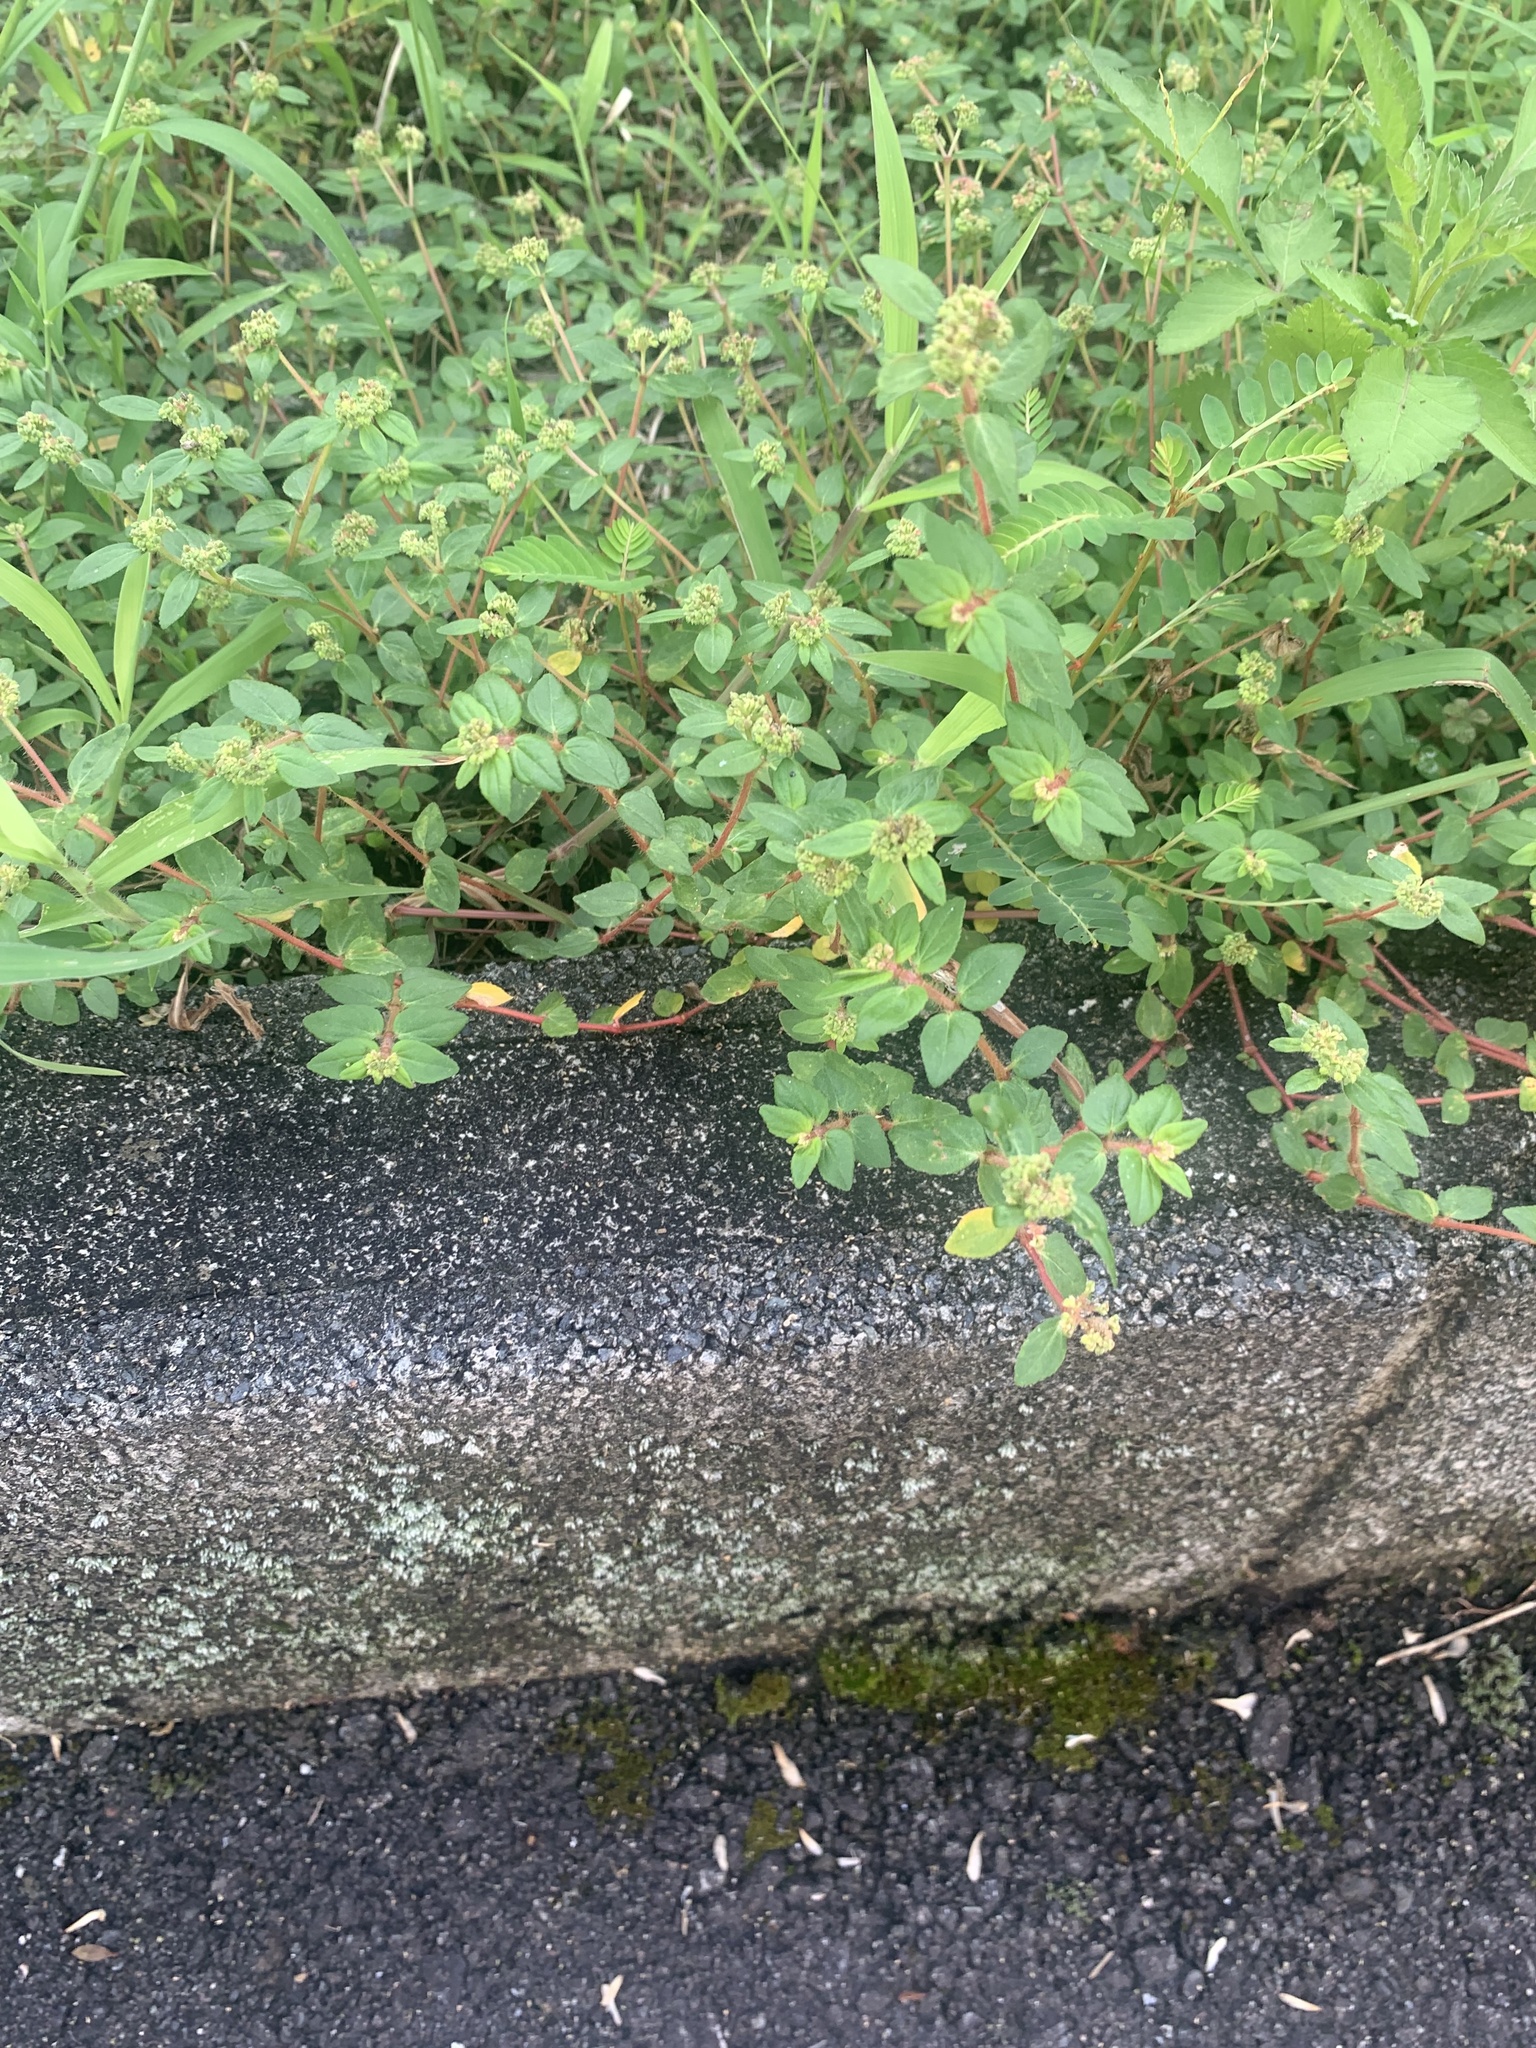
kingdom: Plantae
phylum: Tracheophyta
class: Magnoliopsida
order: Malpighiales
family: Euphorbiaceae
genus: Euphorbia
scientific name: Euphorbia ophthalmica
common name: Florida hammock sandmat
